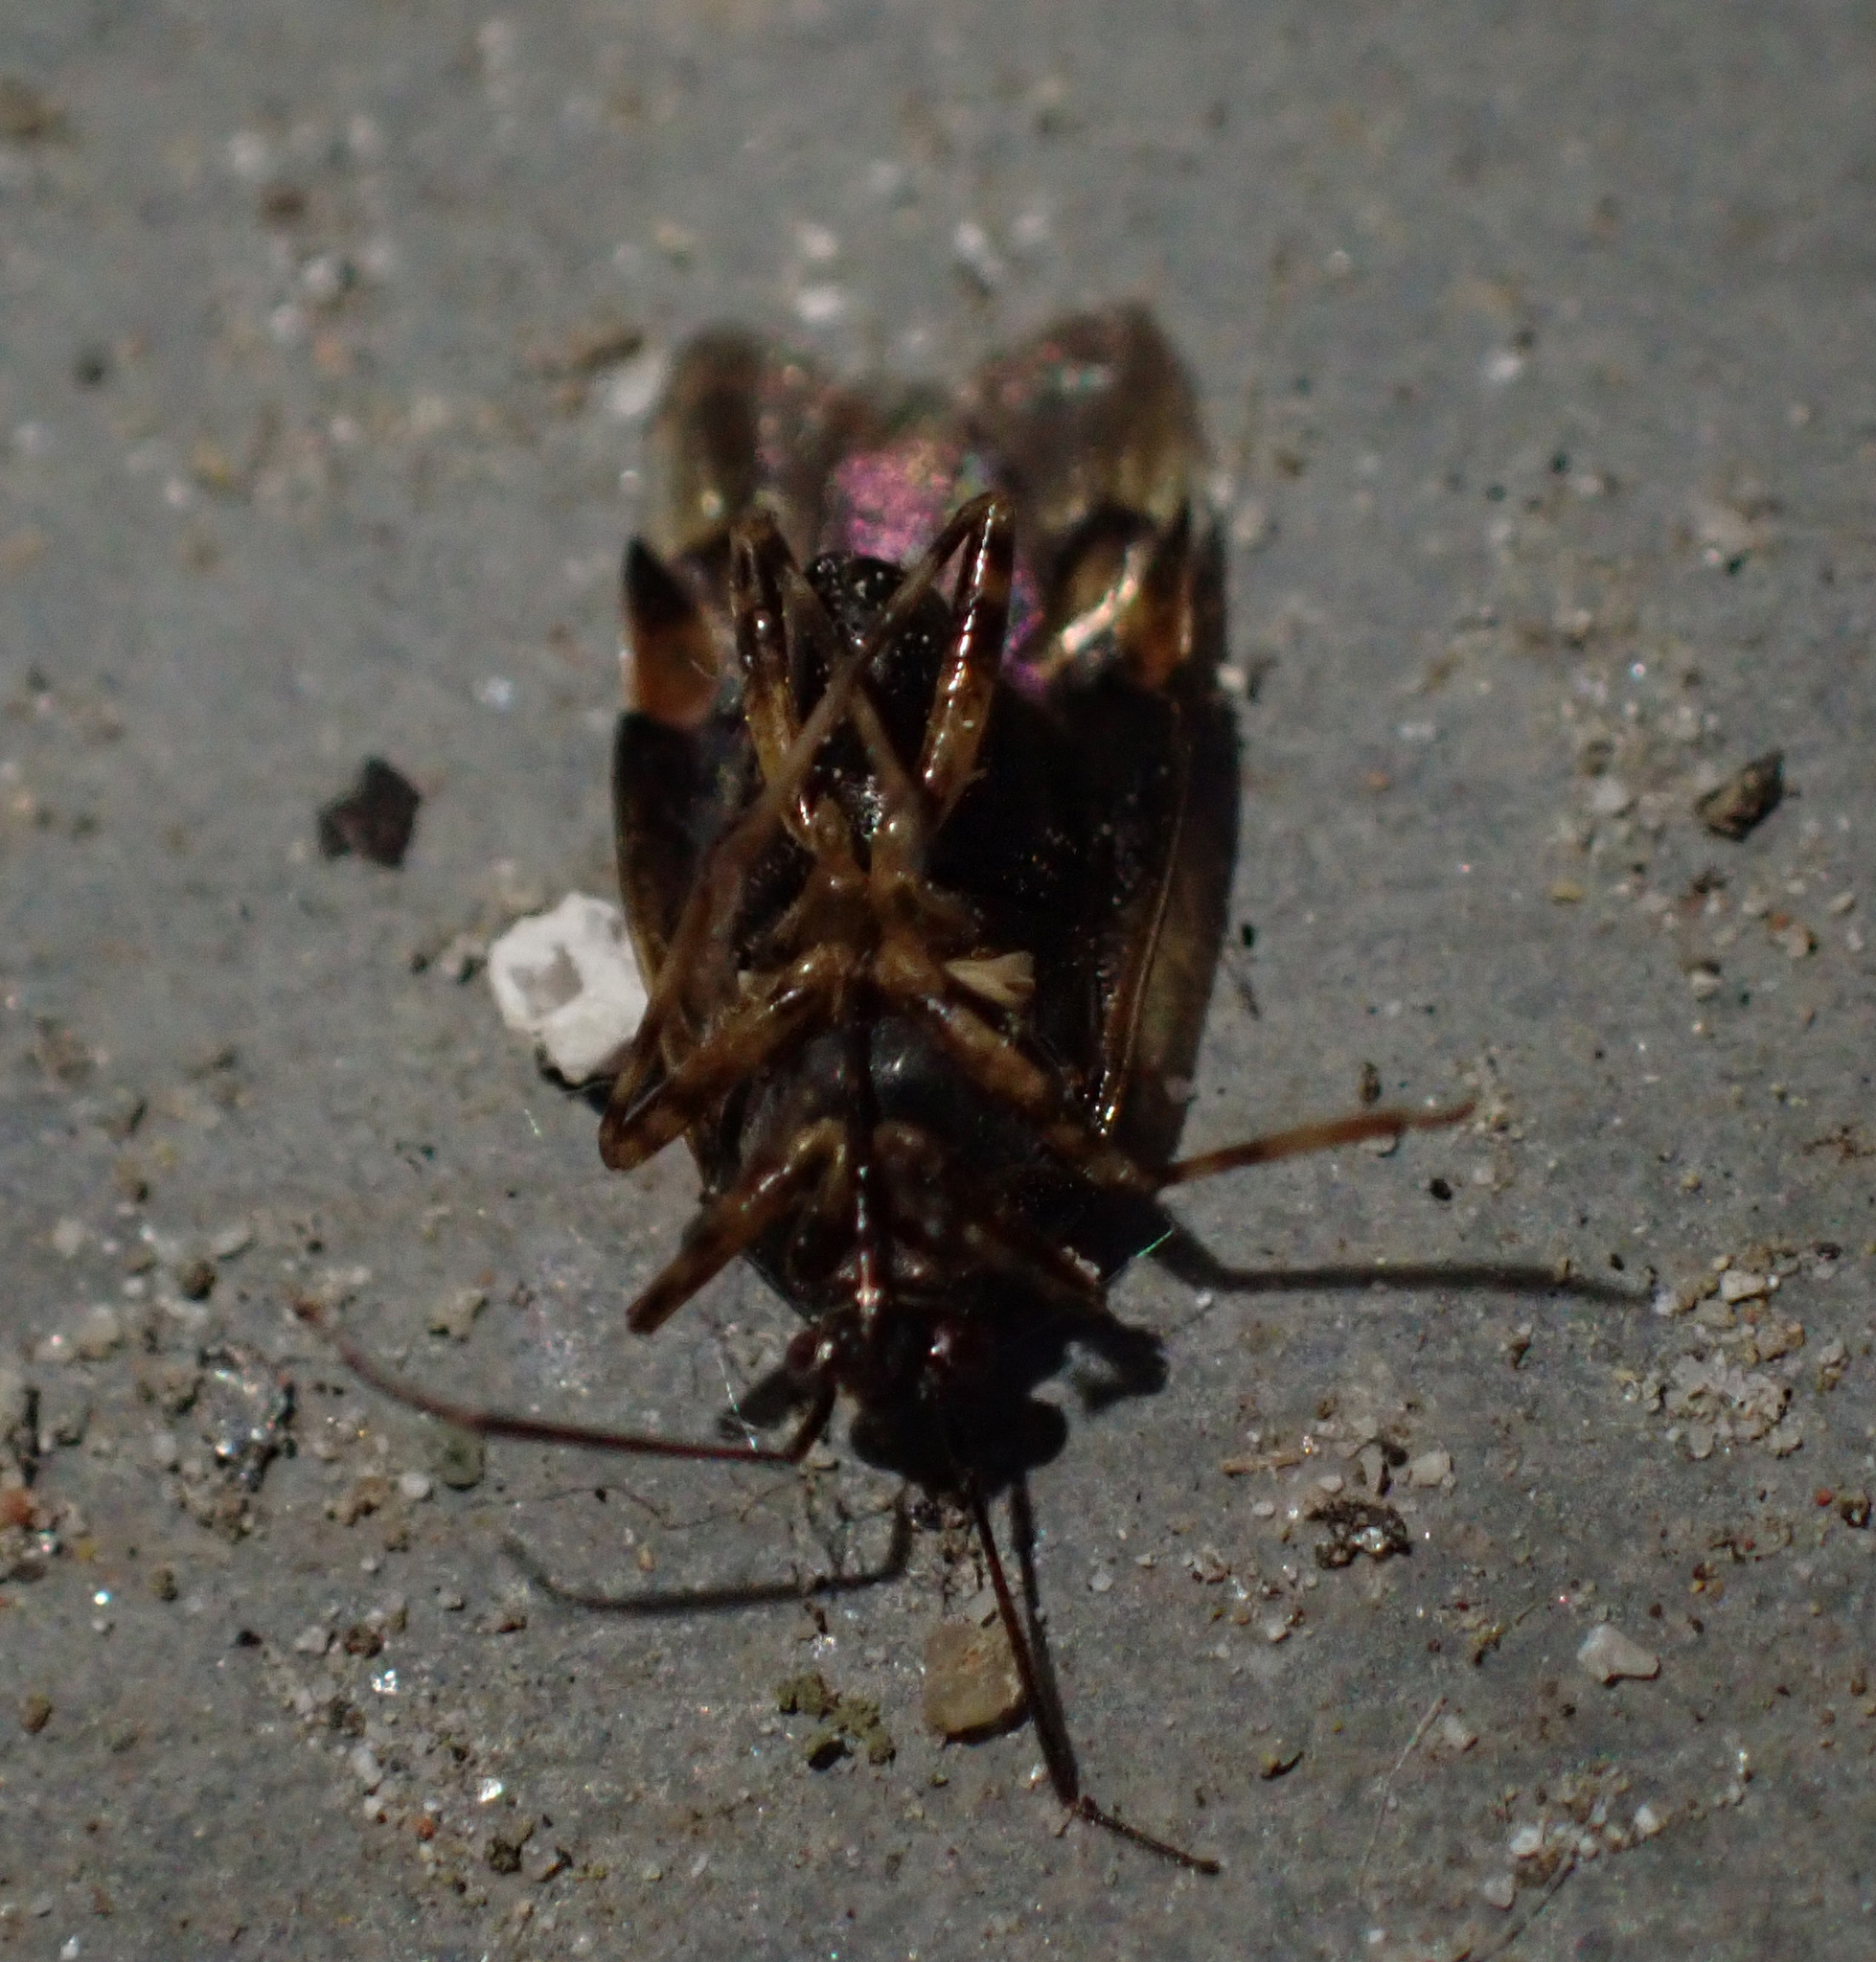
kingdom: Animalia
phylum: Arthropoda
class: Insecta
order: Hemiptera
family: Miridae
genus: Deraeocoris
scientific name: Deraeocoris flavilinea
